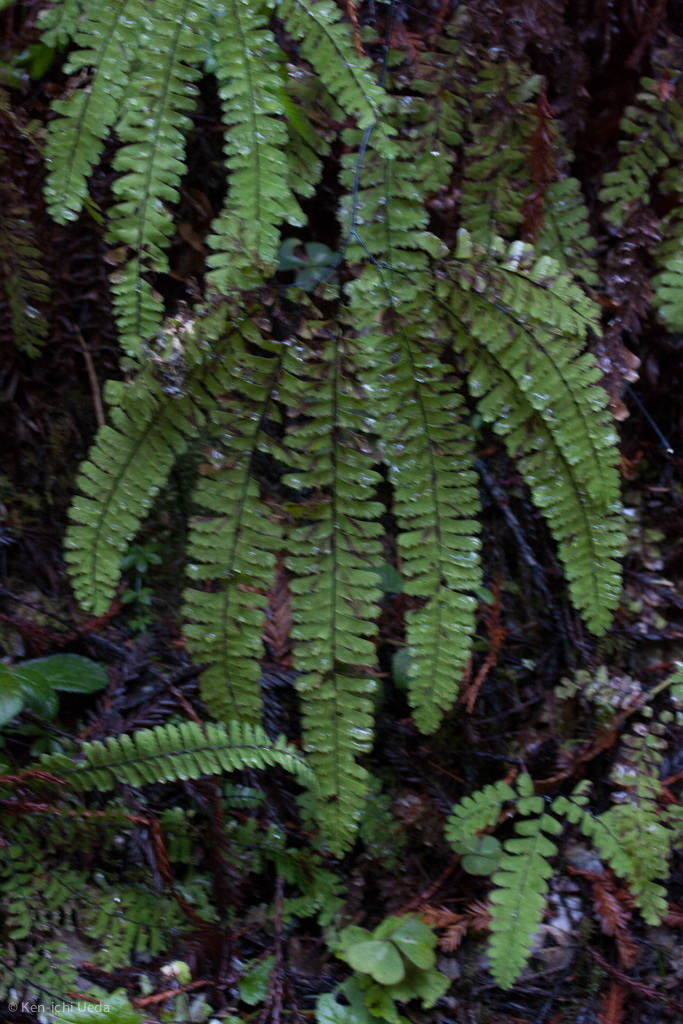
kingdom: Plantae
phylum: Tracheophyta
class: Polypodiopsida
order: Polypodiales
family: Pteridaceae
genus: Adiantum
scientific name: Adiantum aleuticum
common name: Aleutian maidenhair fern
